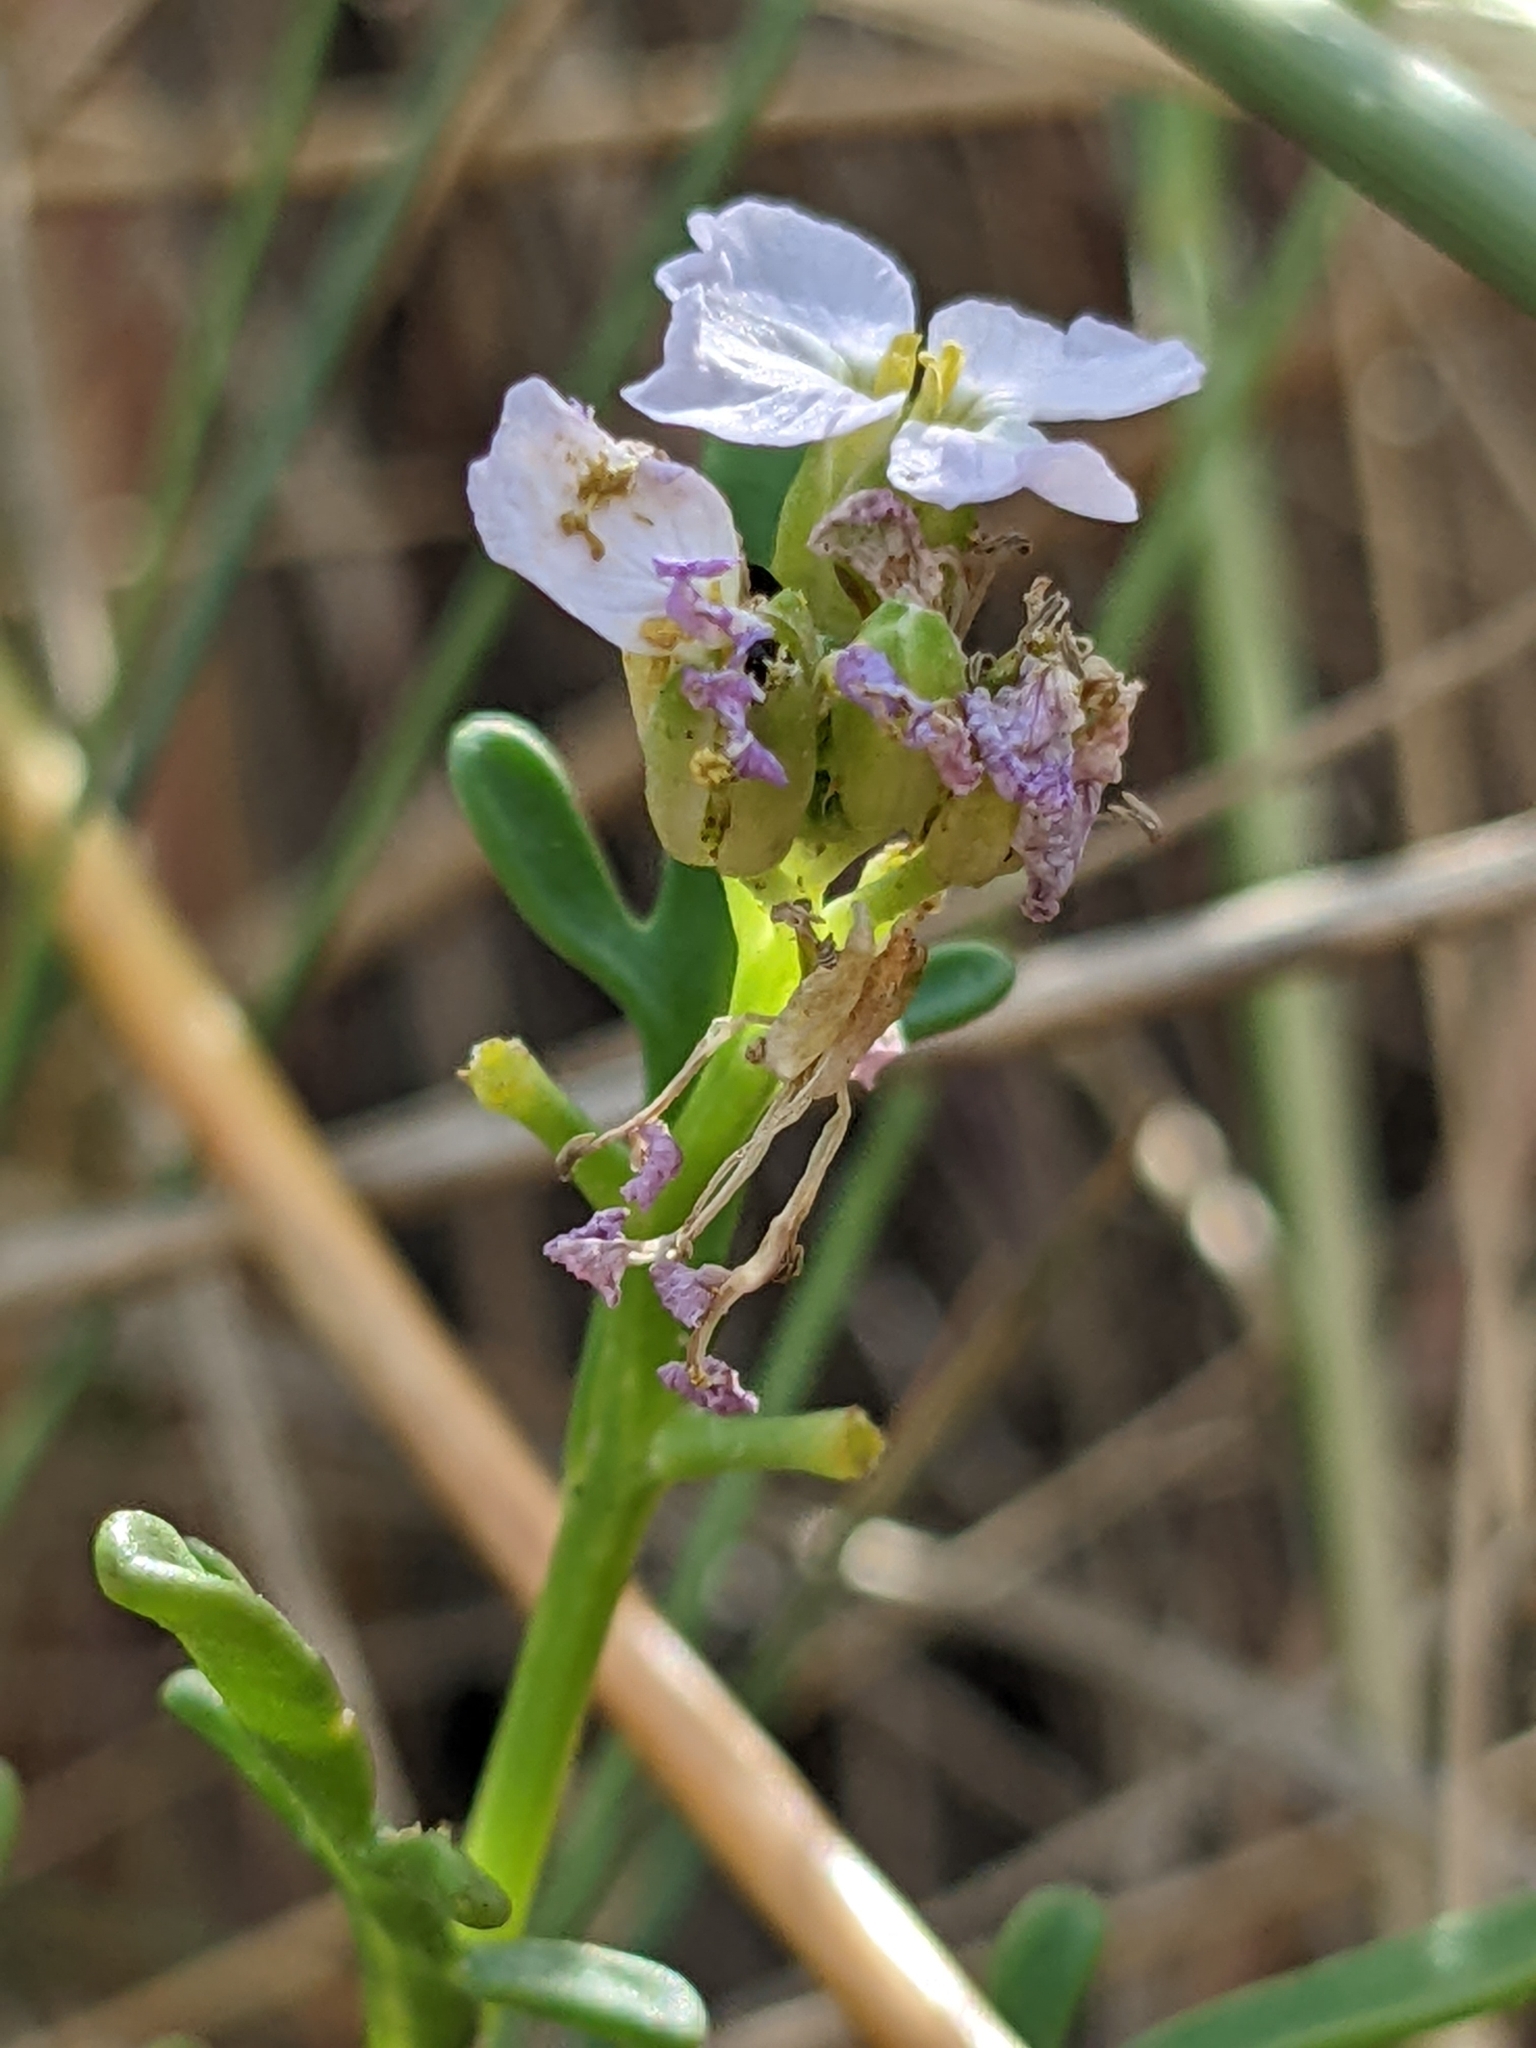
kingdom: Plantae
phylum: Tracheophyta
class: Magnoliopsida
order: Brassicales
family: Brassicaceae
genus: Cakile
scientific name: Cakile maritima
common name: Sea rocket
